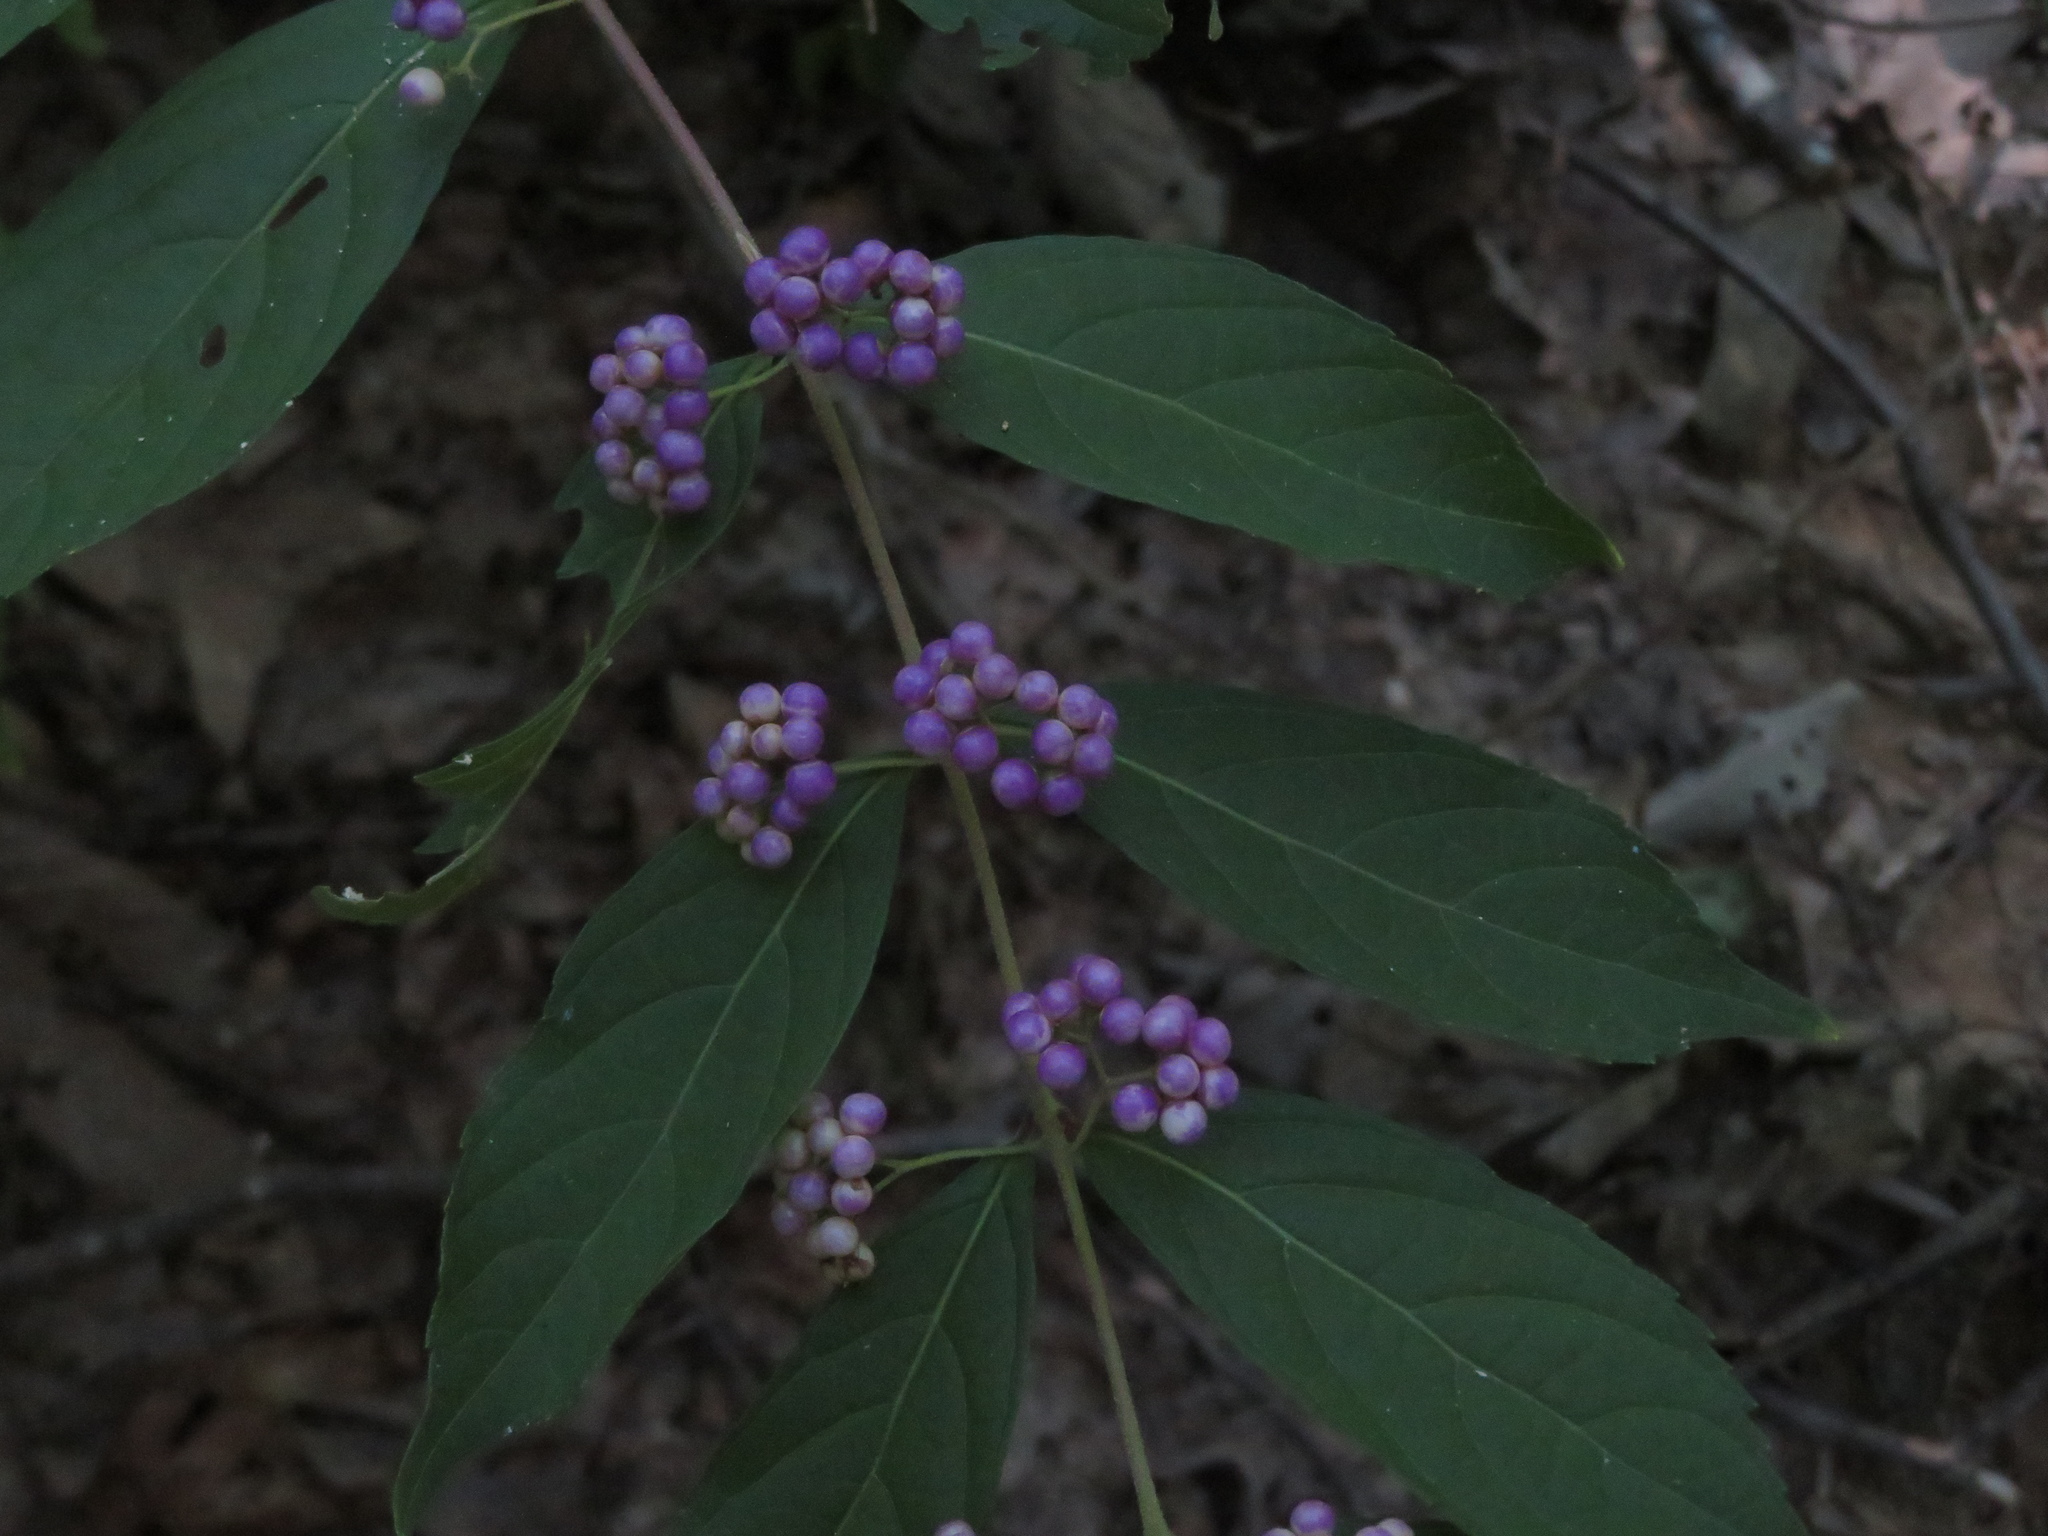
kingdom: Plantae
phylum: Tracheophyta
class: Magnoliopsida
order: Lamiales
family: Lamiaceae
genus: Callicarpa
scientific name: Callicarpa americana
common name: American beautyberry
